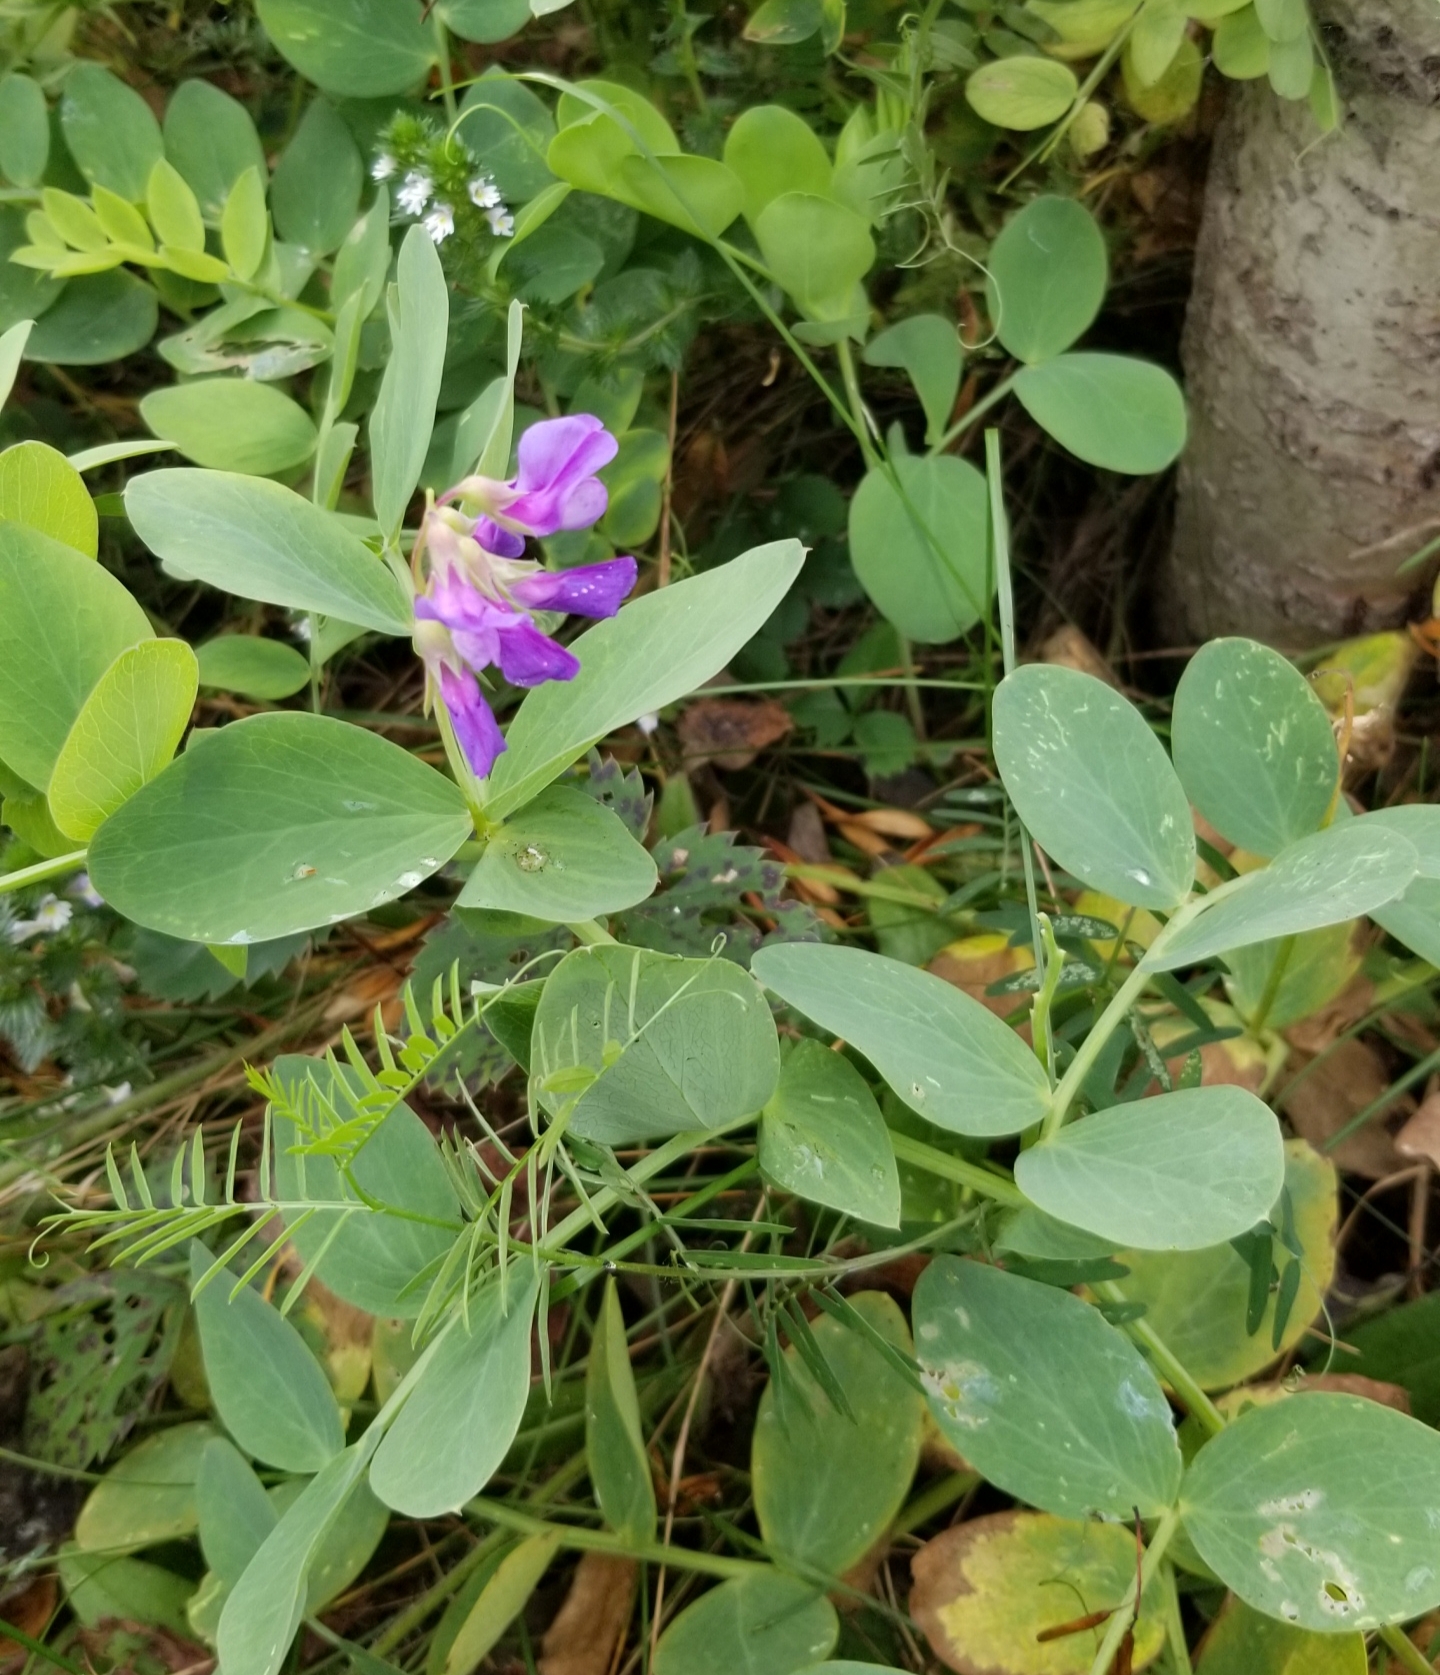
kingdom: Plantae
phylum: Tracheophyta
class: Magnoliopsida
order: Fabales
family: Fabaceae
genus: Lathyrus
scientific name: Lathyrus japonicus
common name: Sea pea
